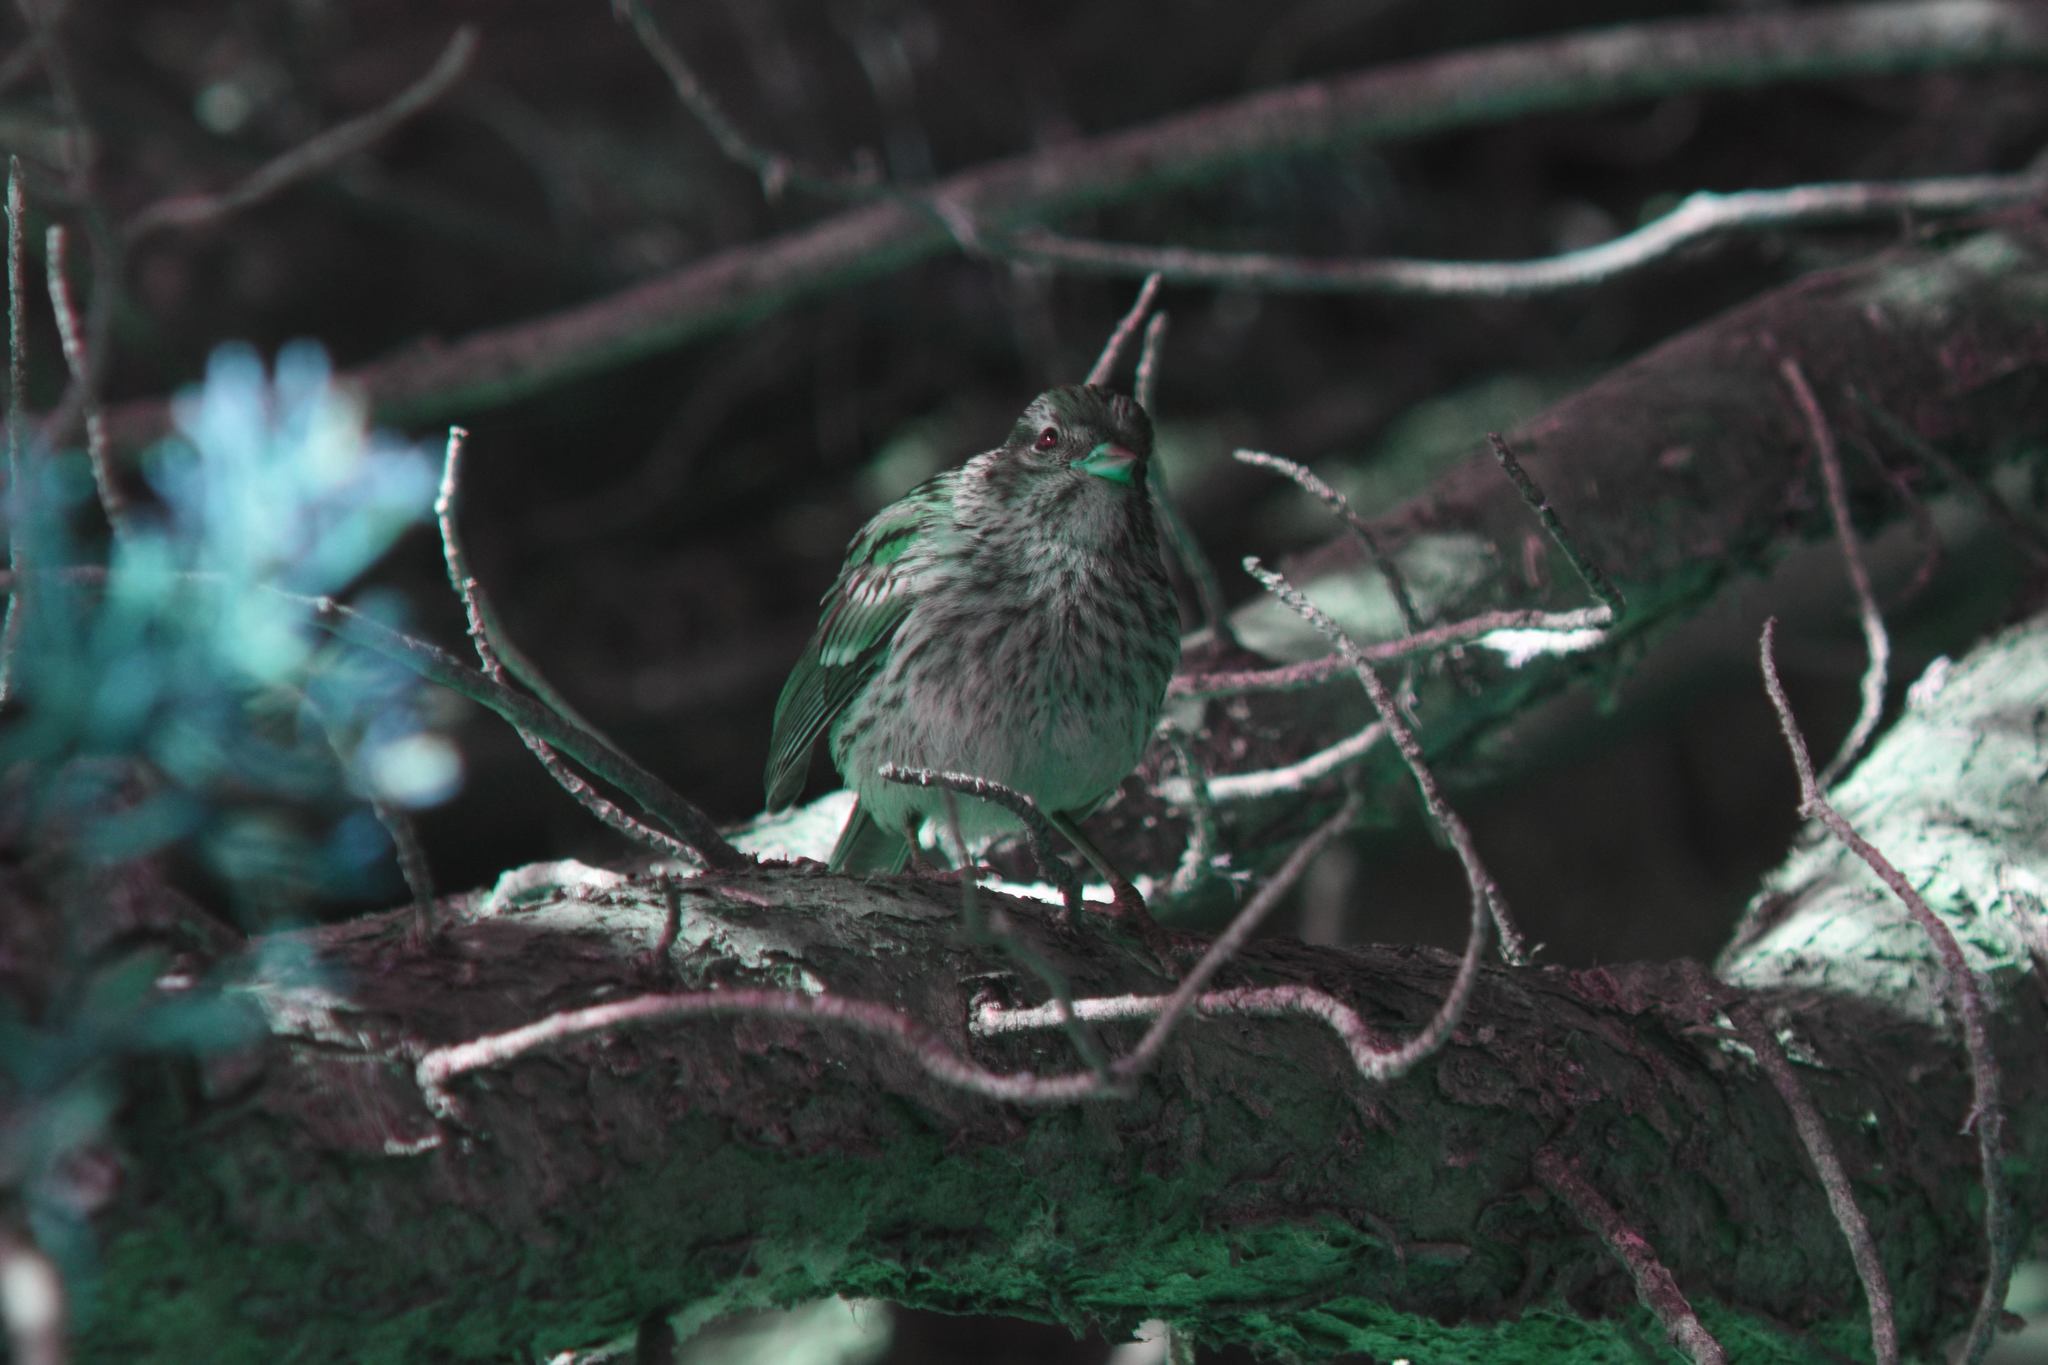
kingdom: Animalia
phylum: Chordata
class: Aves
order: Passeriformes
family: Passerellidae
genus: Zonotrichia
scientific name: Zonotrichia leucophrys
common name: White-crowned sparrow
